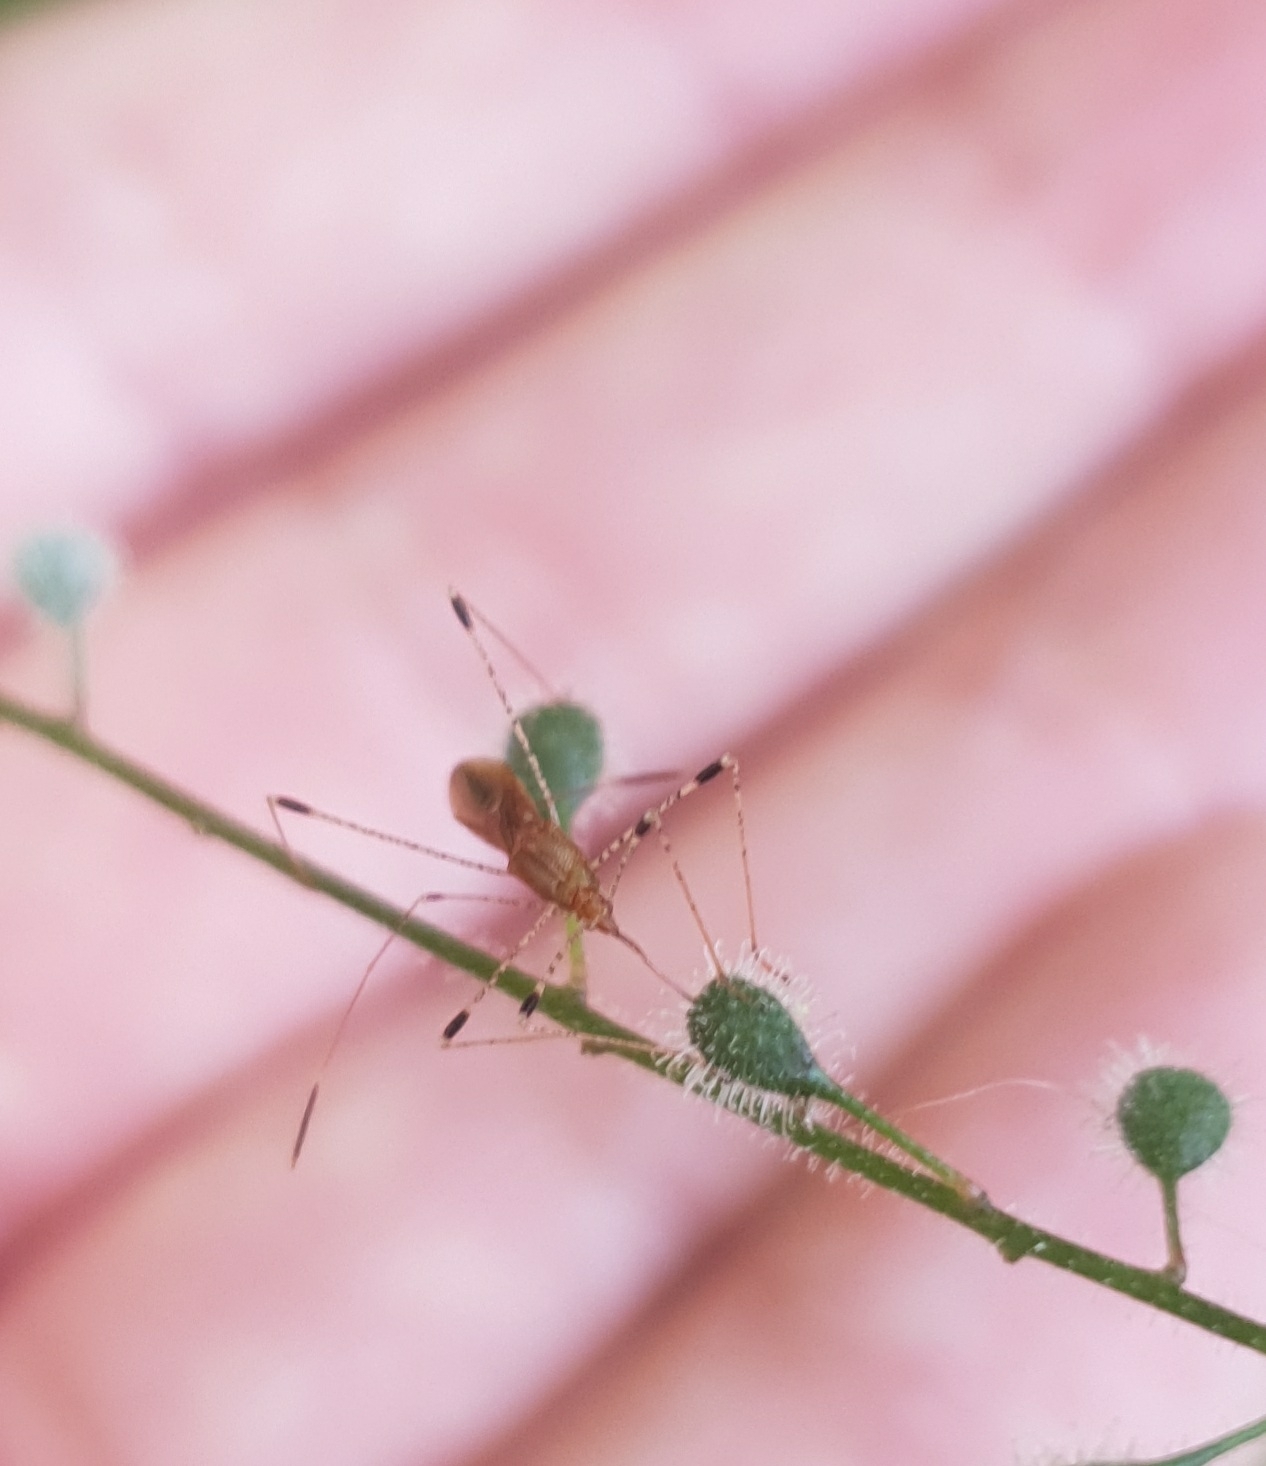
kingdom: Animalia
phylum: Arthropoda
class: Insecta
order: Hemiptera
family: Berytidae
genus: Metatropis
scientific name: Metatropis rufescens
